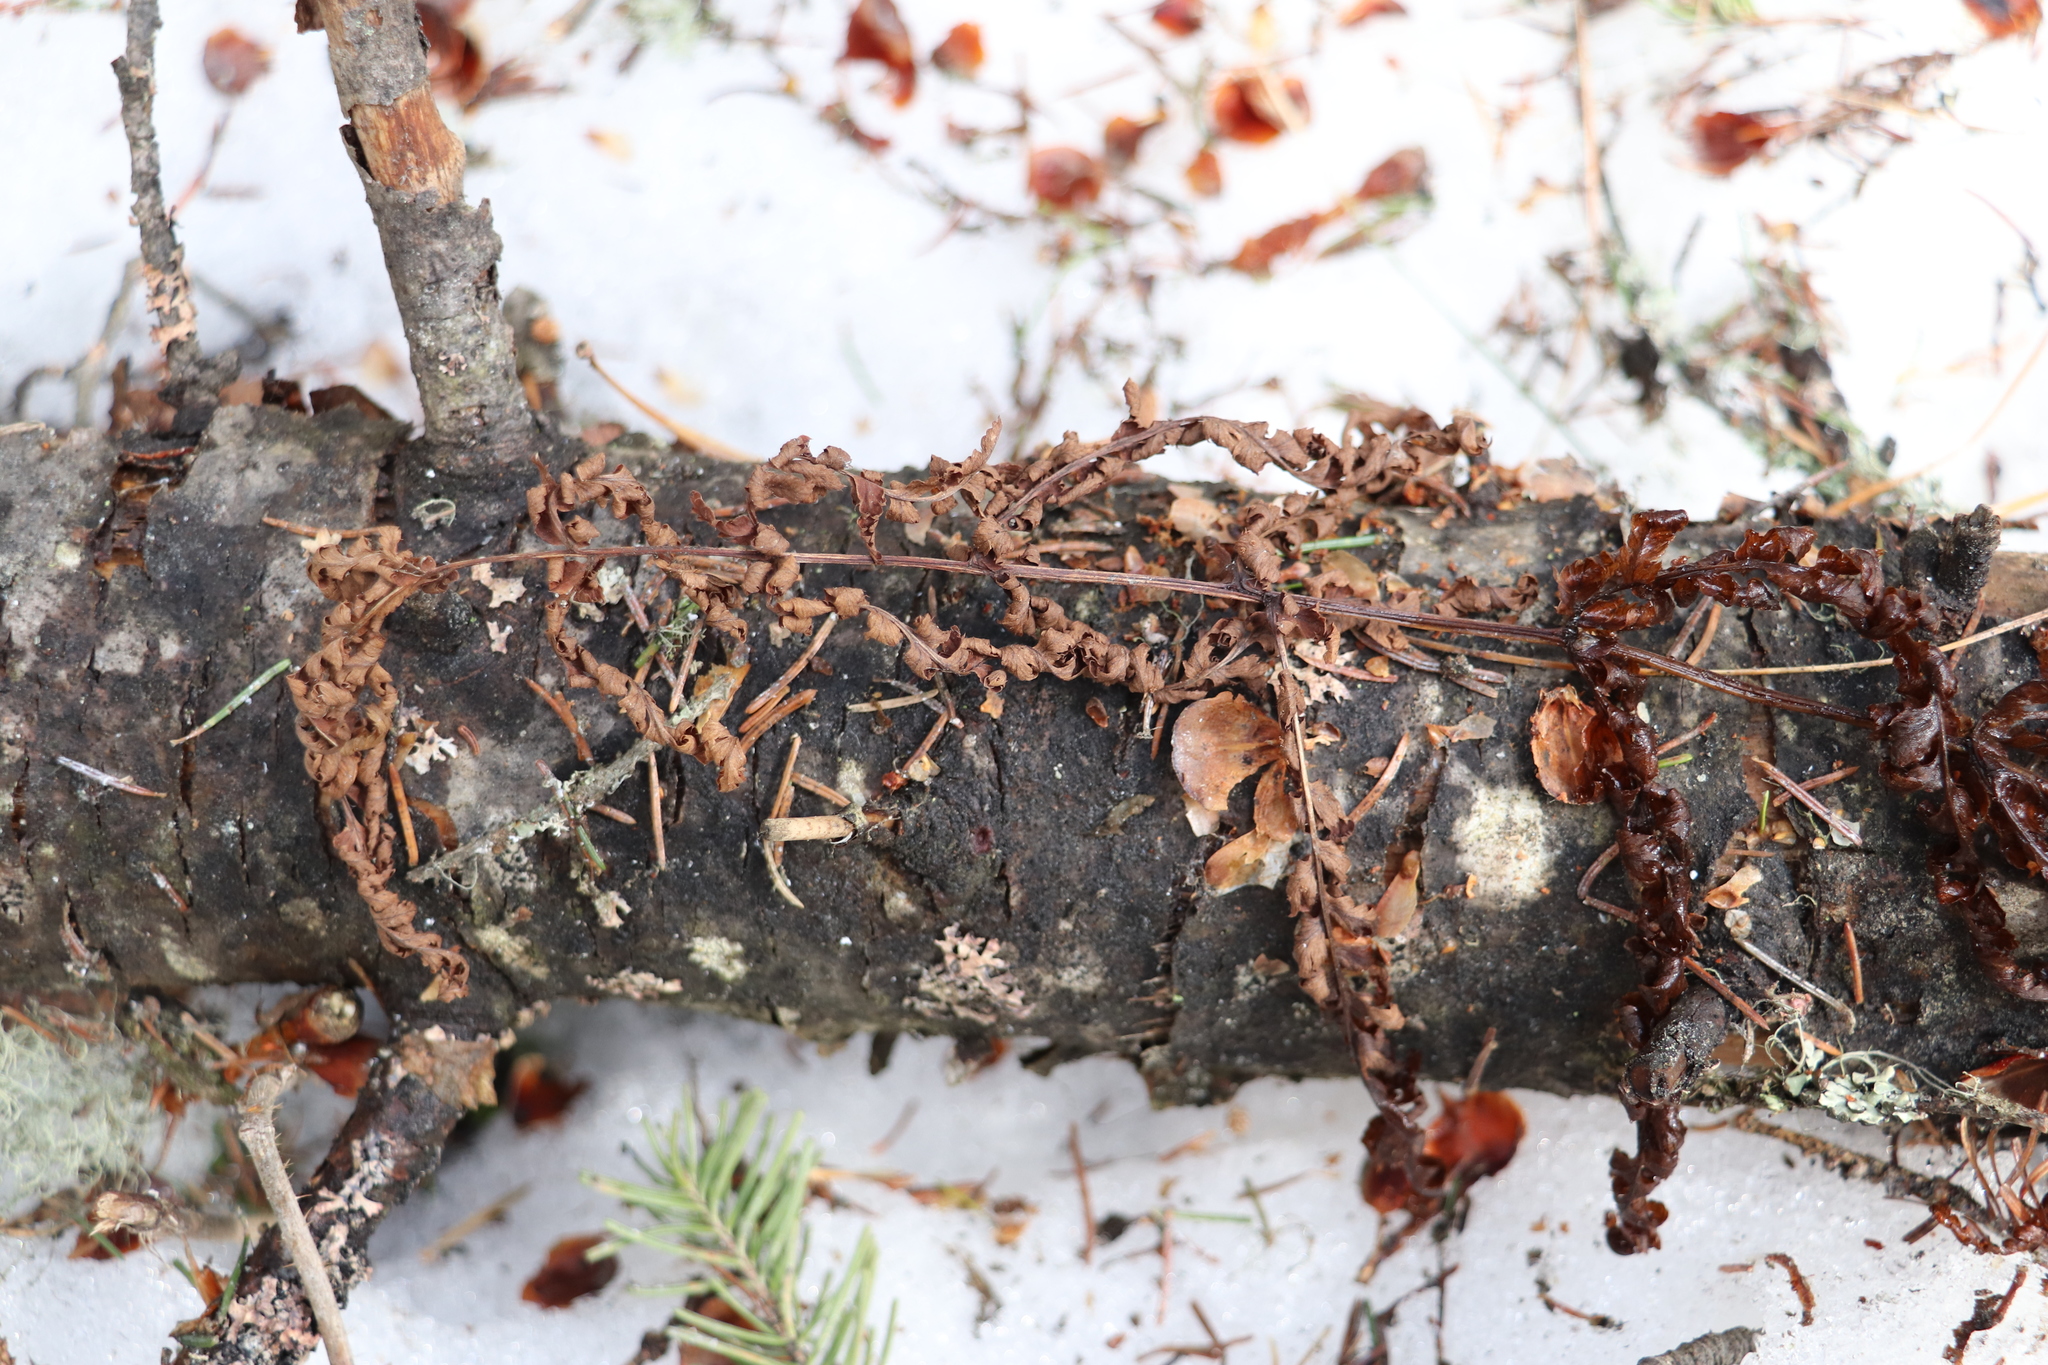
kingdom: Plantae
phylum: Tracheophyta
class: Polypodiopsida
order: Polypodiales
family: Thelypteridaceae
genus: Phegopteris
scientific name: Phegopteris connectilis
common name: Beech fern
